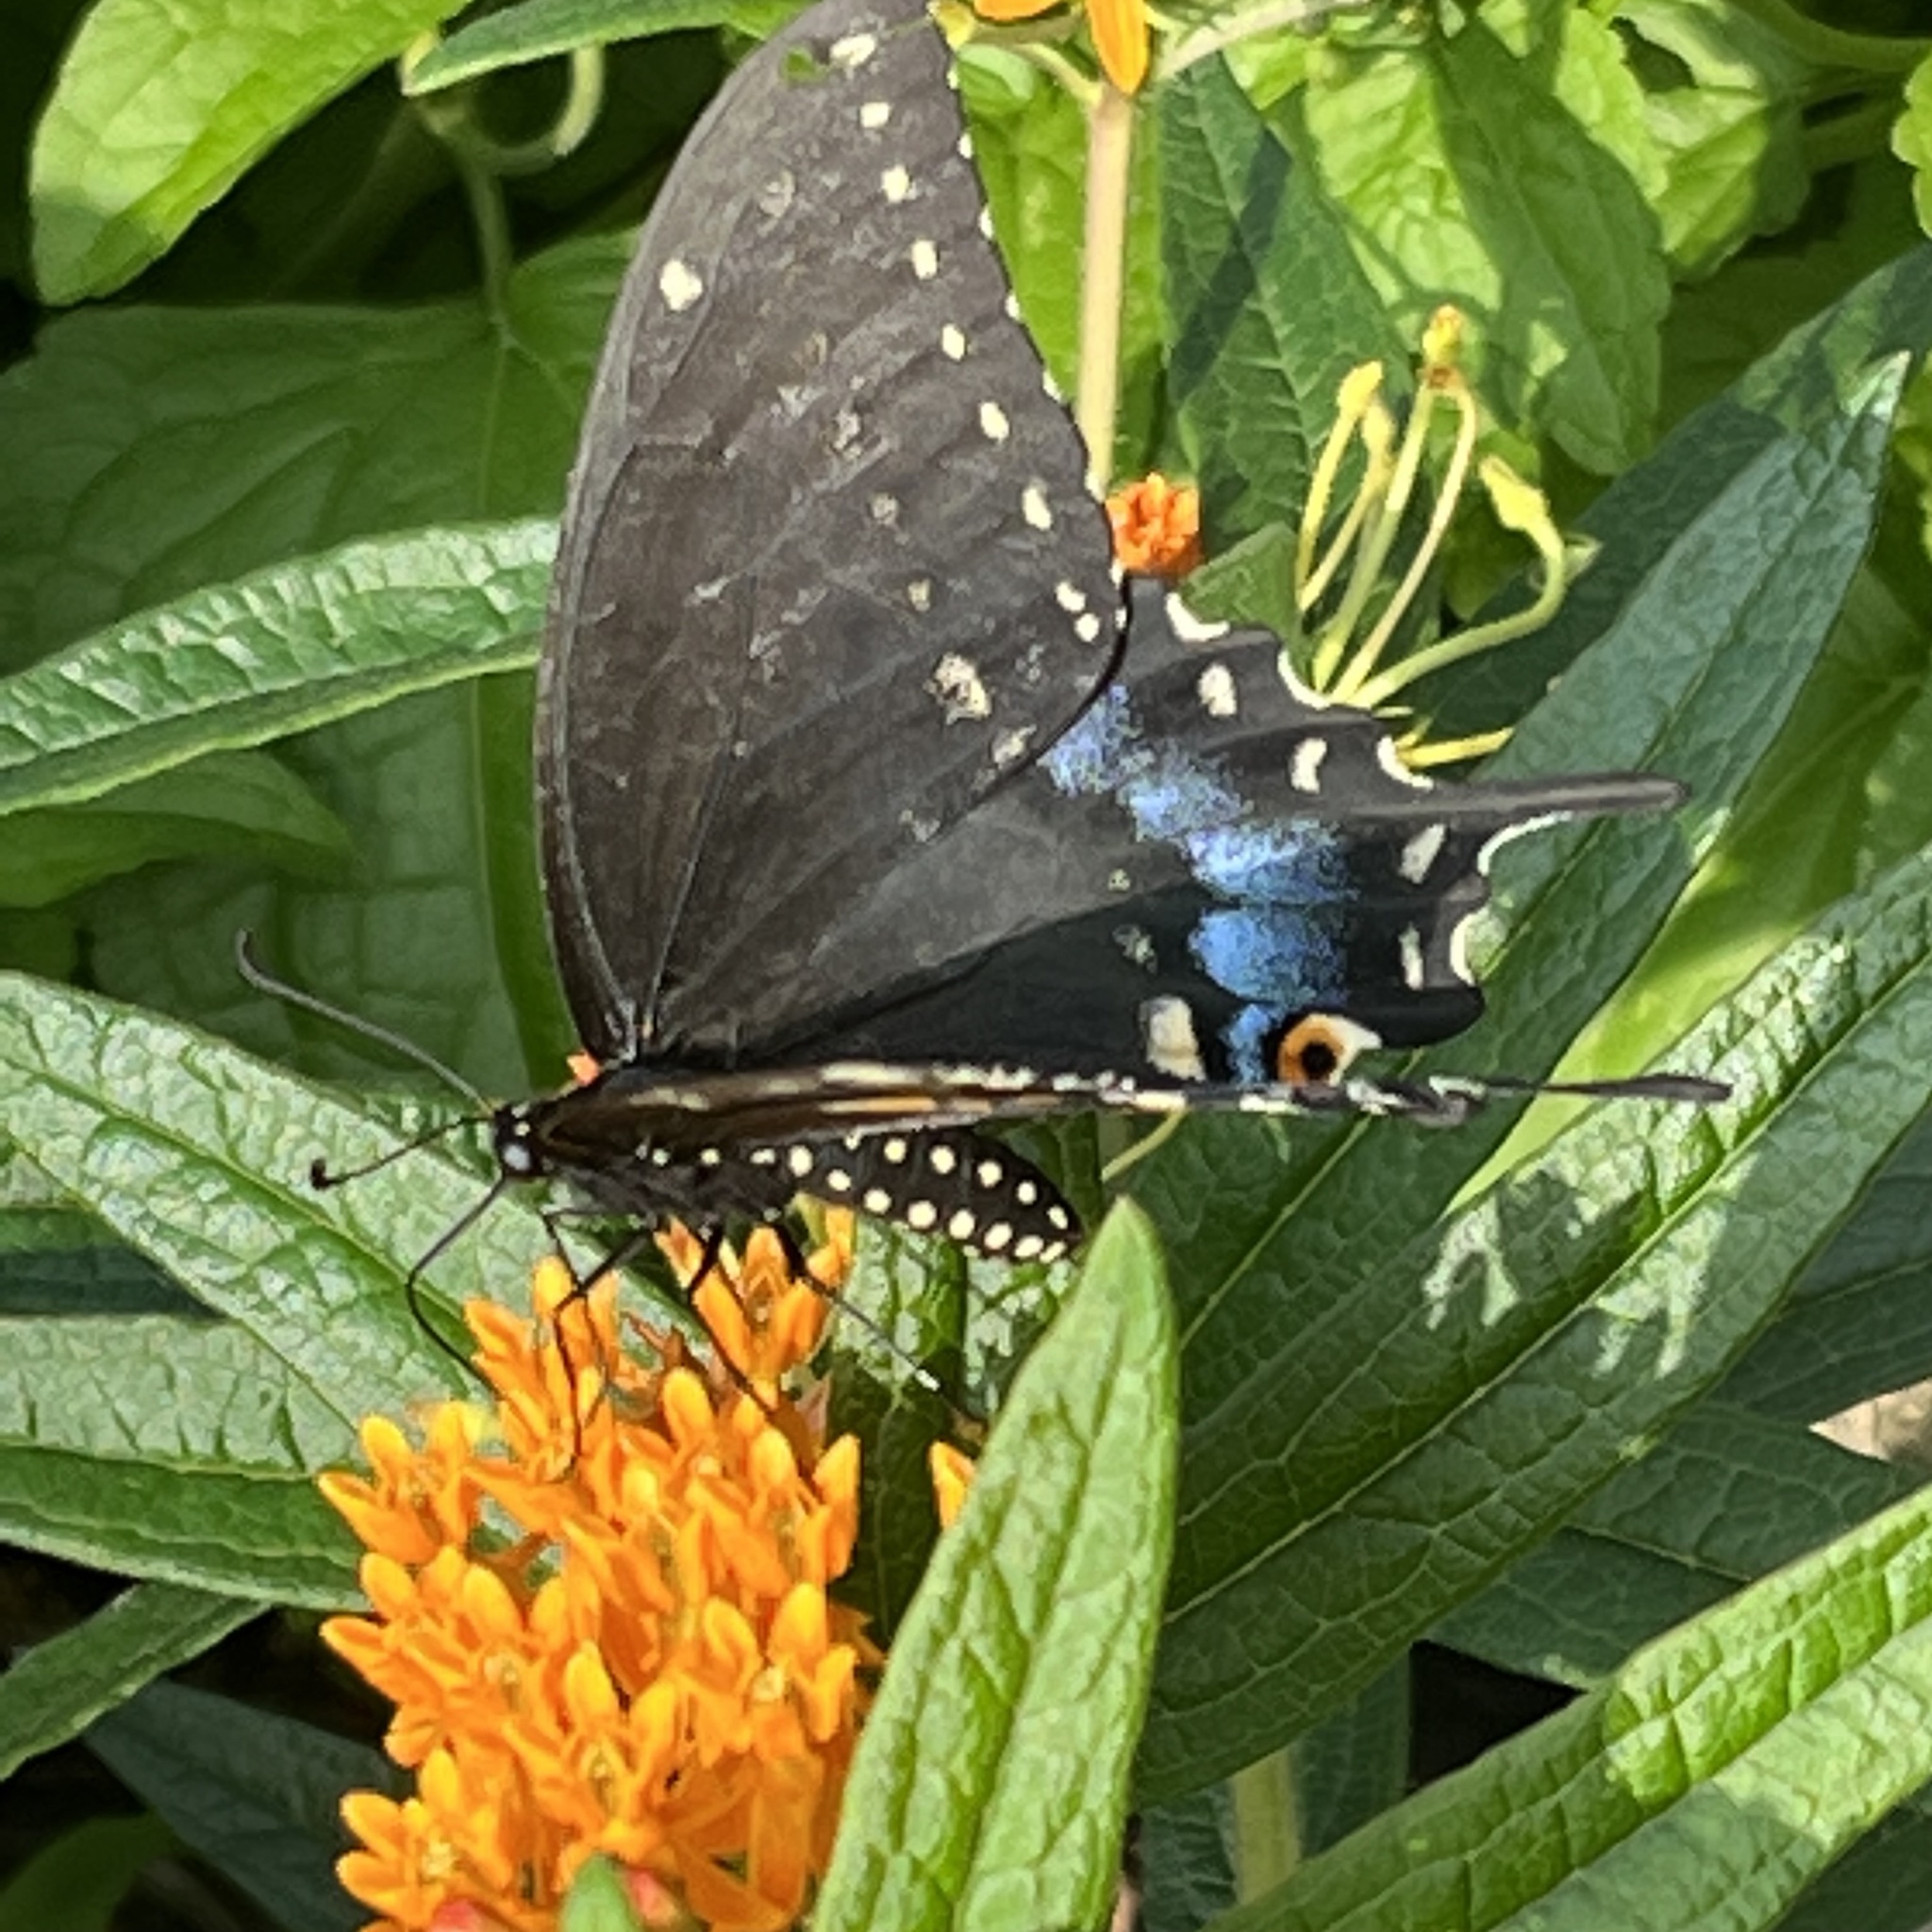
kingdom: Animalia
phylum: Arthropoda
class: Insecta
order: Lepidoptera
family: Papilionidae
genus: Papilio
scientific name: Papilio polyxenes
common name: Black swallowtail
